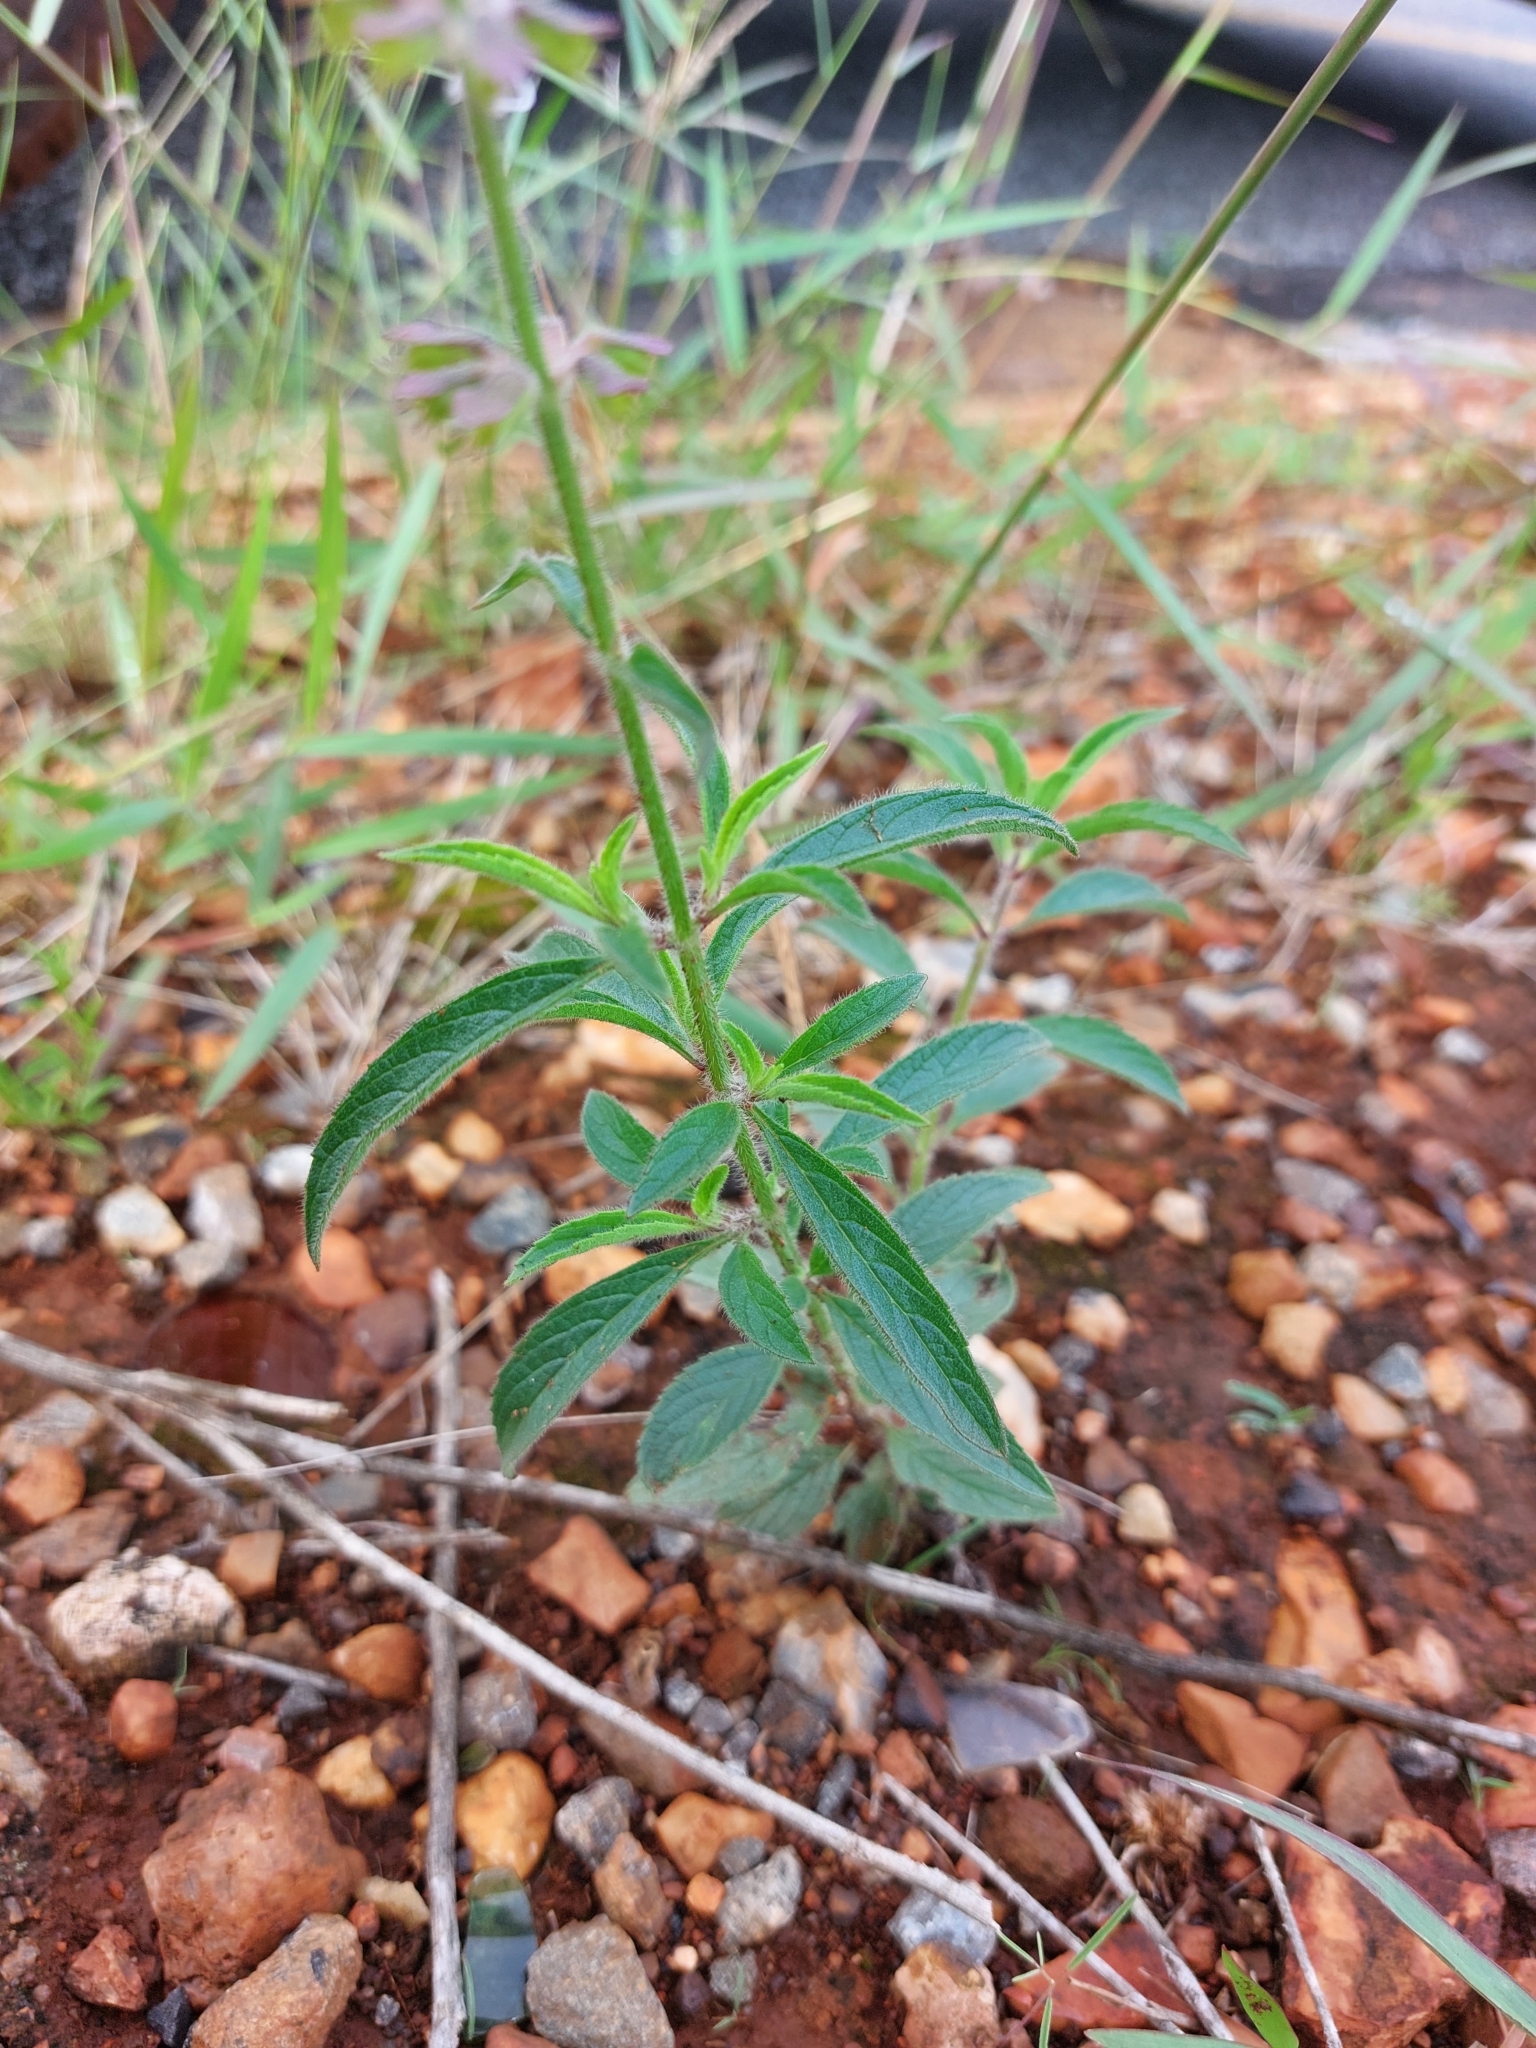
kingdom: Plantae
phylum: Tracheophyta
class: Magnoliopsida
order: Lamiales
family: Lamiaceae
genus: Syncolostemon
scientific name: Syncolostemon canescens
